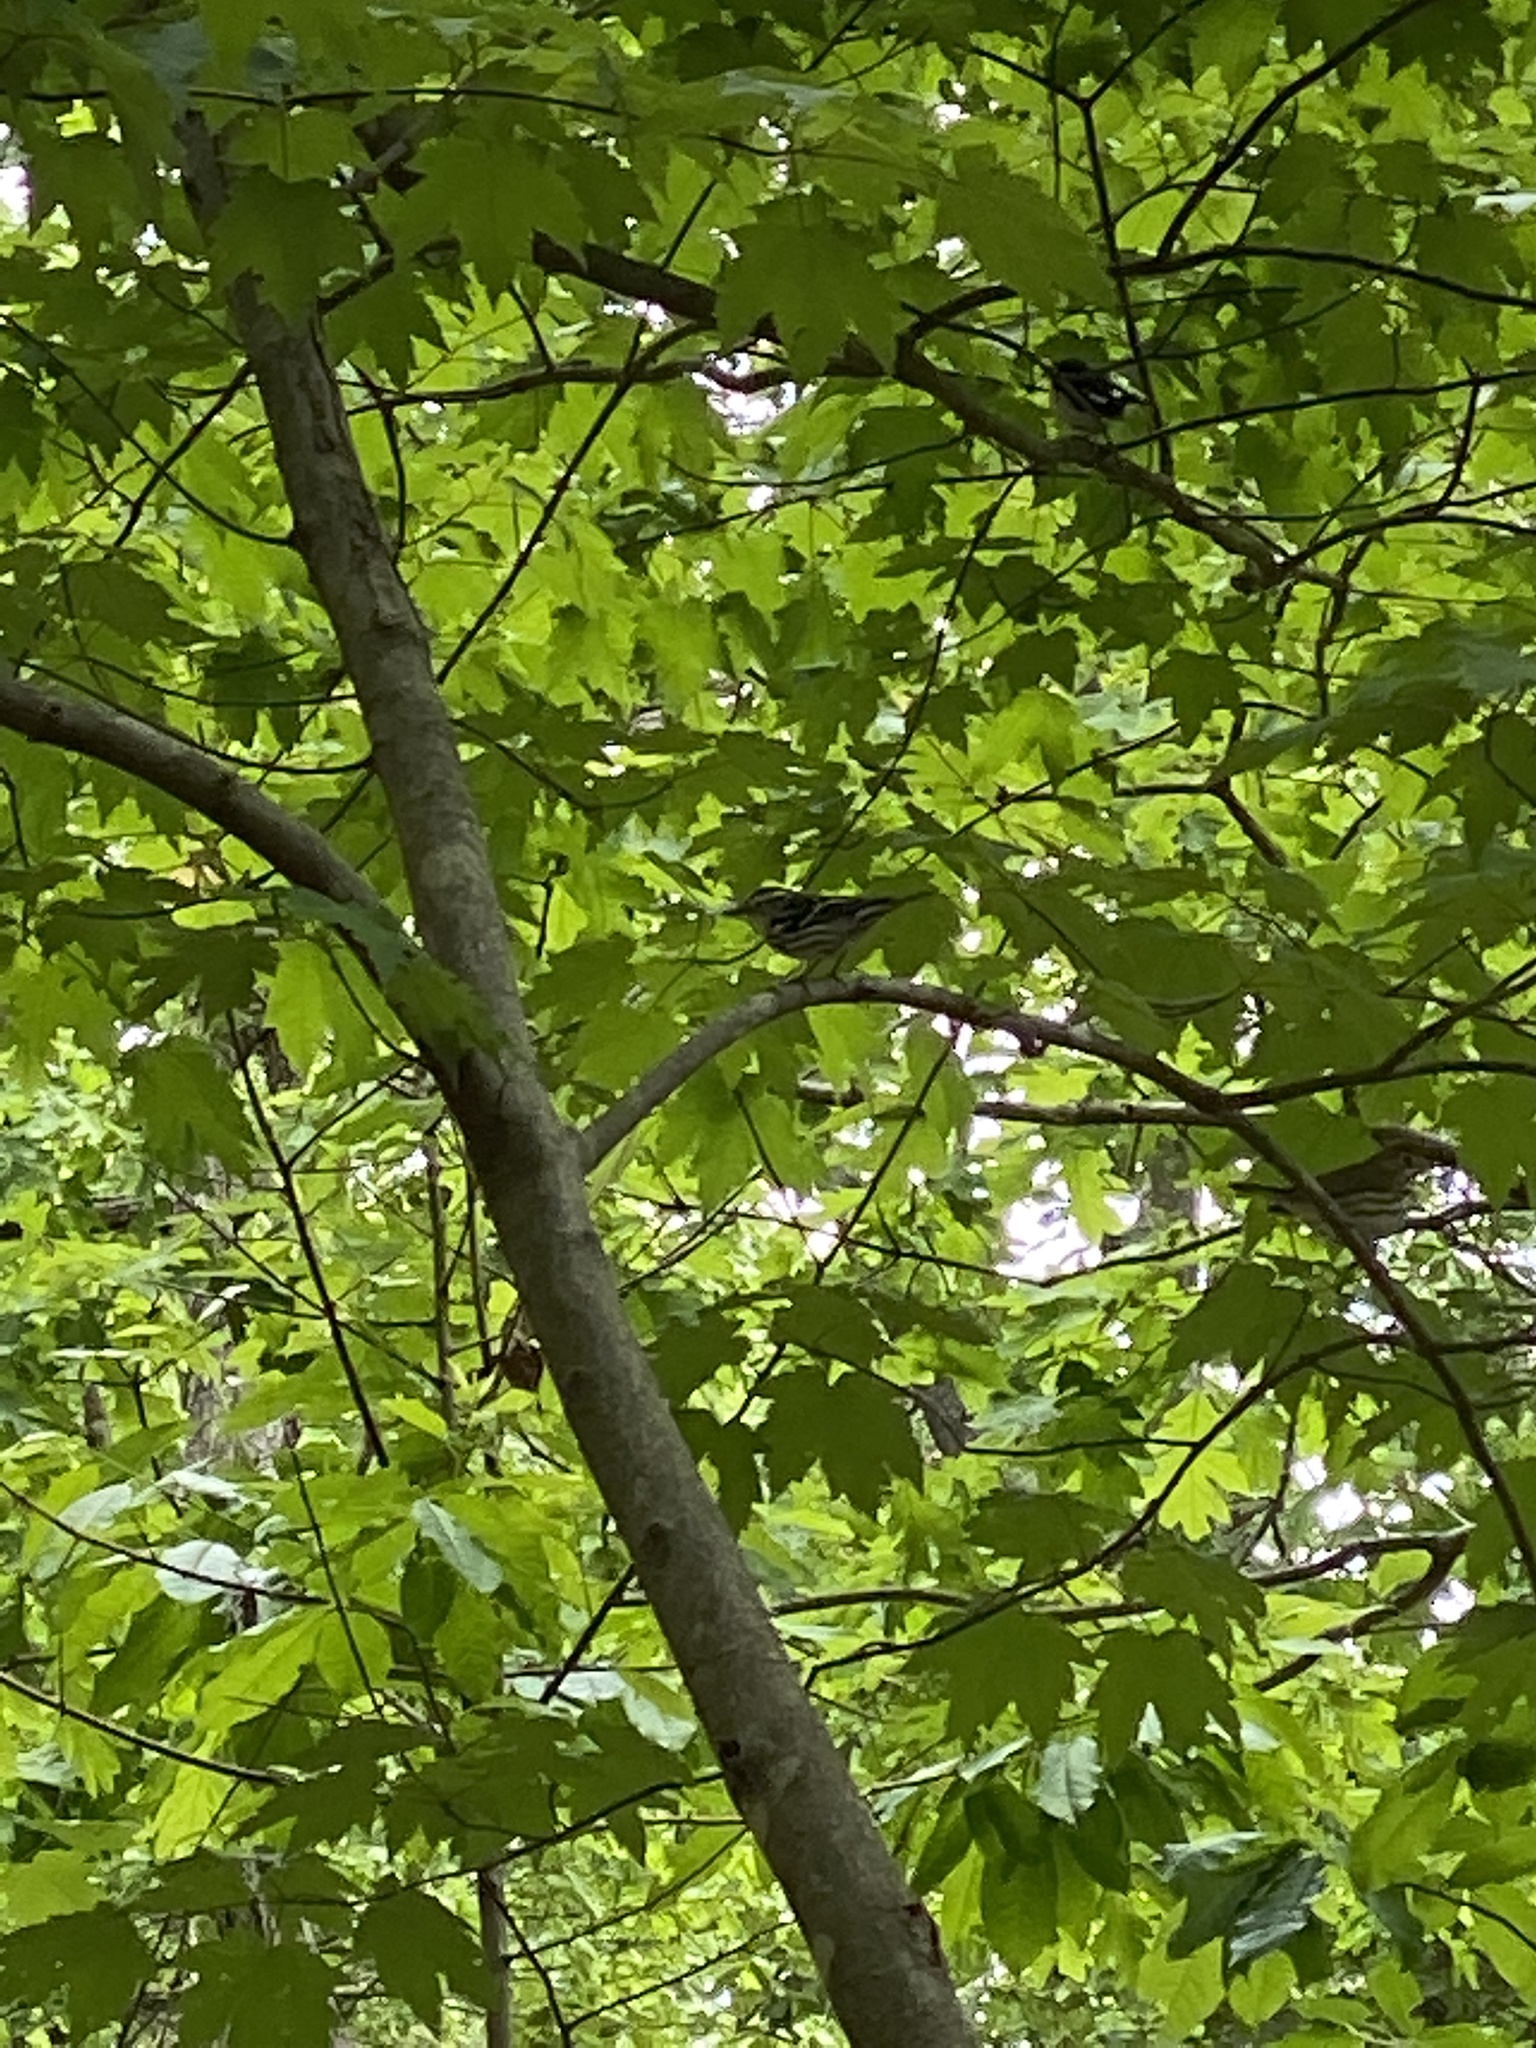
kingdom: Animalia
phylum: Chordata
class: Aves
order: Passeriformes
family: Parulidae
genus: Mniotilta
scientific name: Mniotilta varia
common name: Black-and-white warbler
